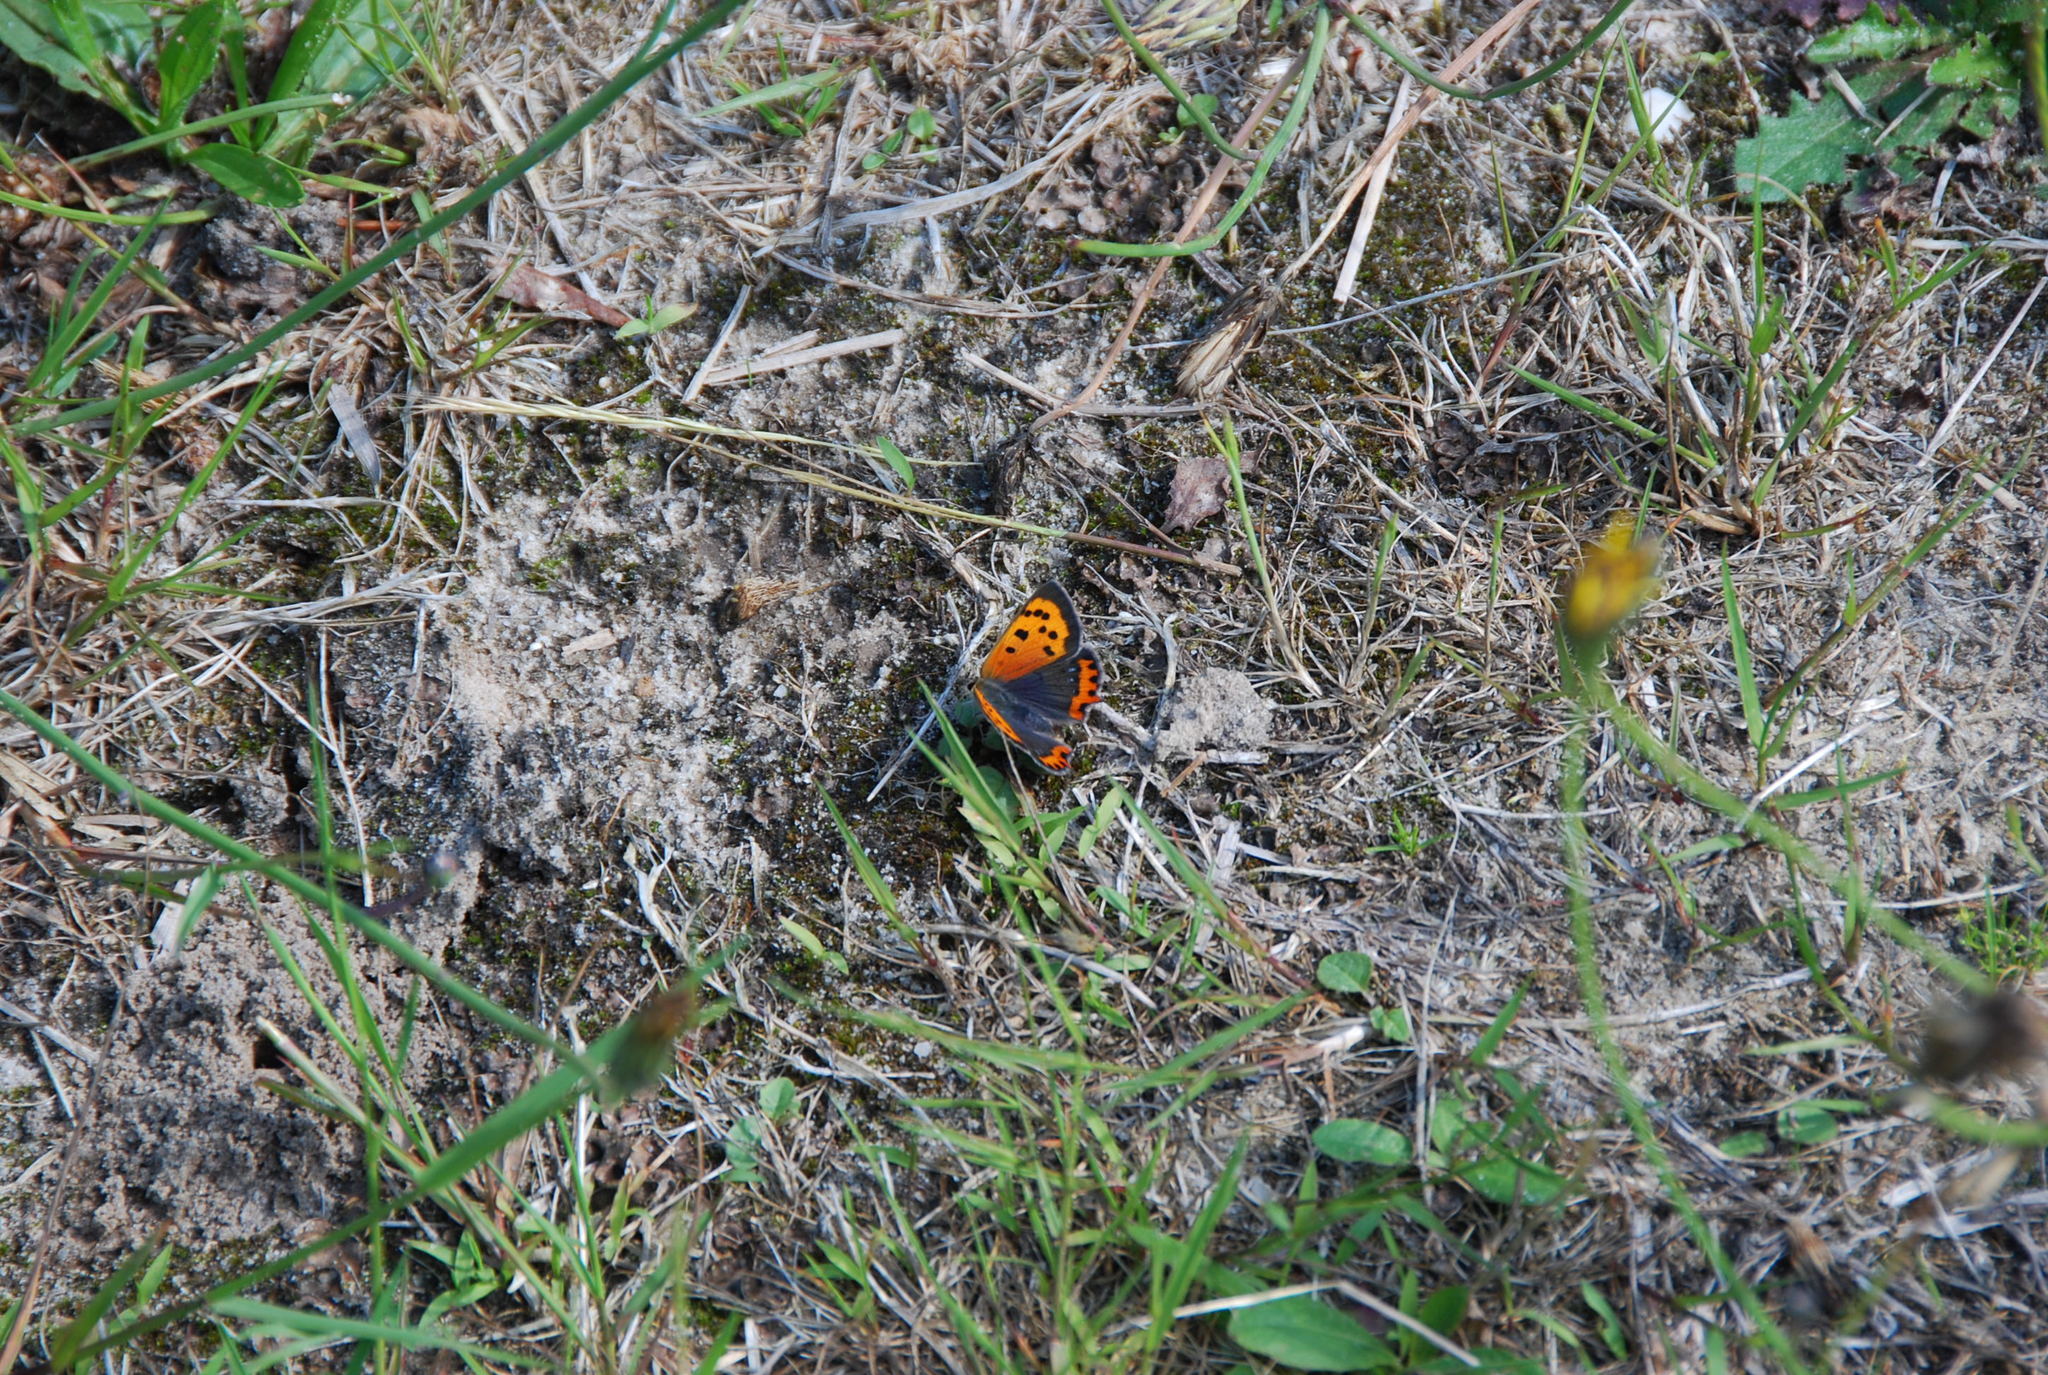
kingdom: Animalia
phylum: Arthropoda
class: Insecta
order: Lepidoptera
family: Lycaenidae
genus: Lycaena
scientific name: Lycaena phlaeas
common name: Small copper
